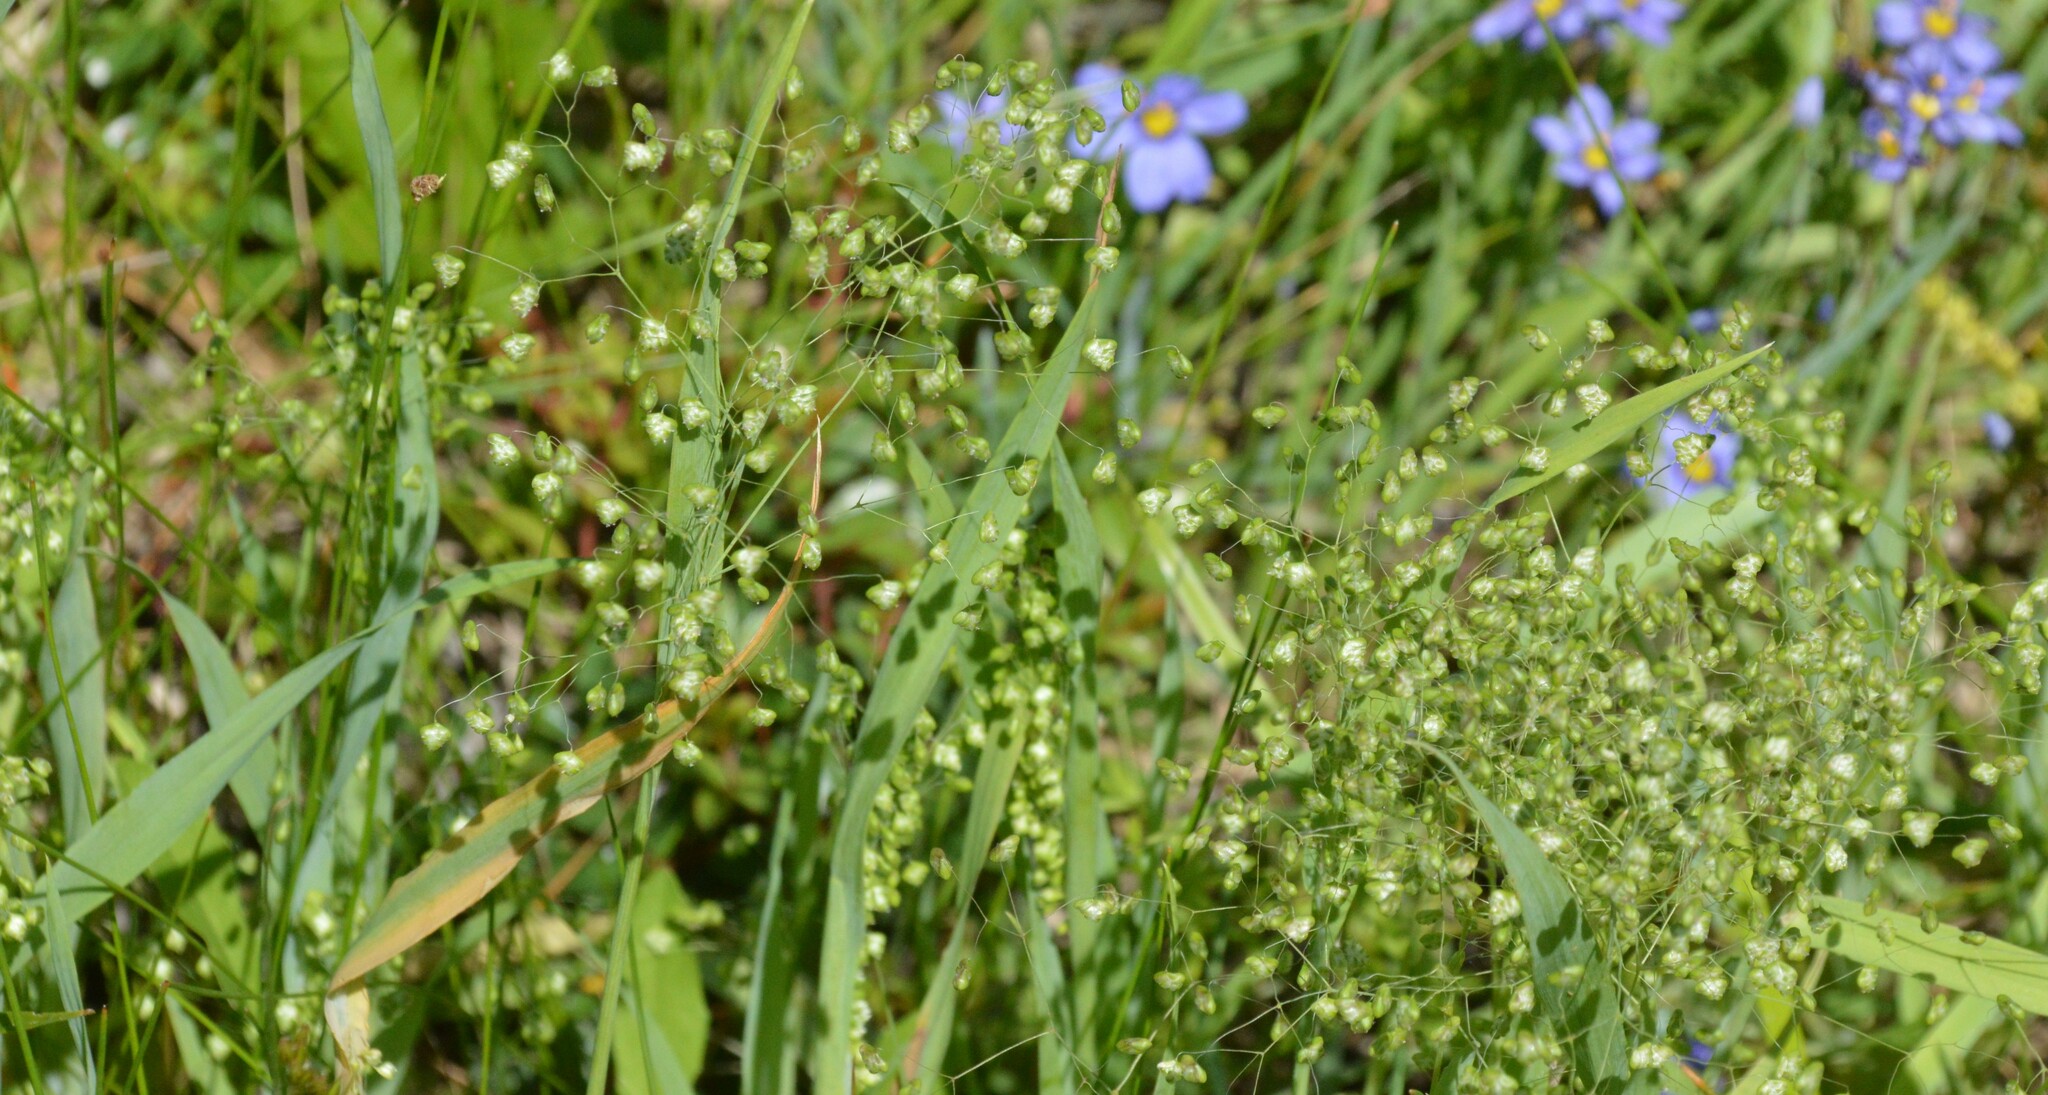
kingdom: Plantae
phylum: Tracheophyta
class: Liliopsida
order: Poales
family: Poaceae
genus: Briza
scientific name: Briza minor
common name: Lesser quaking-grass
